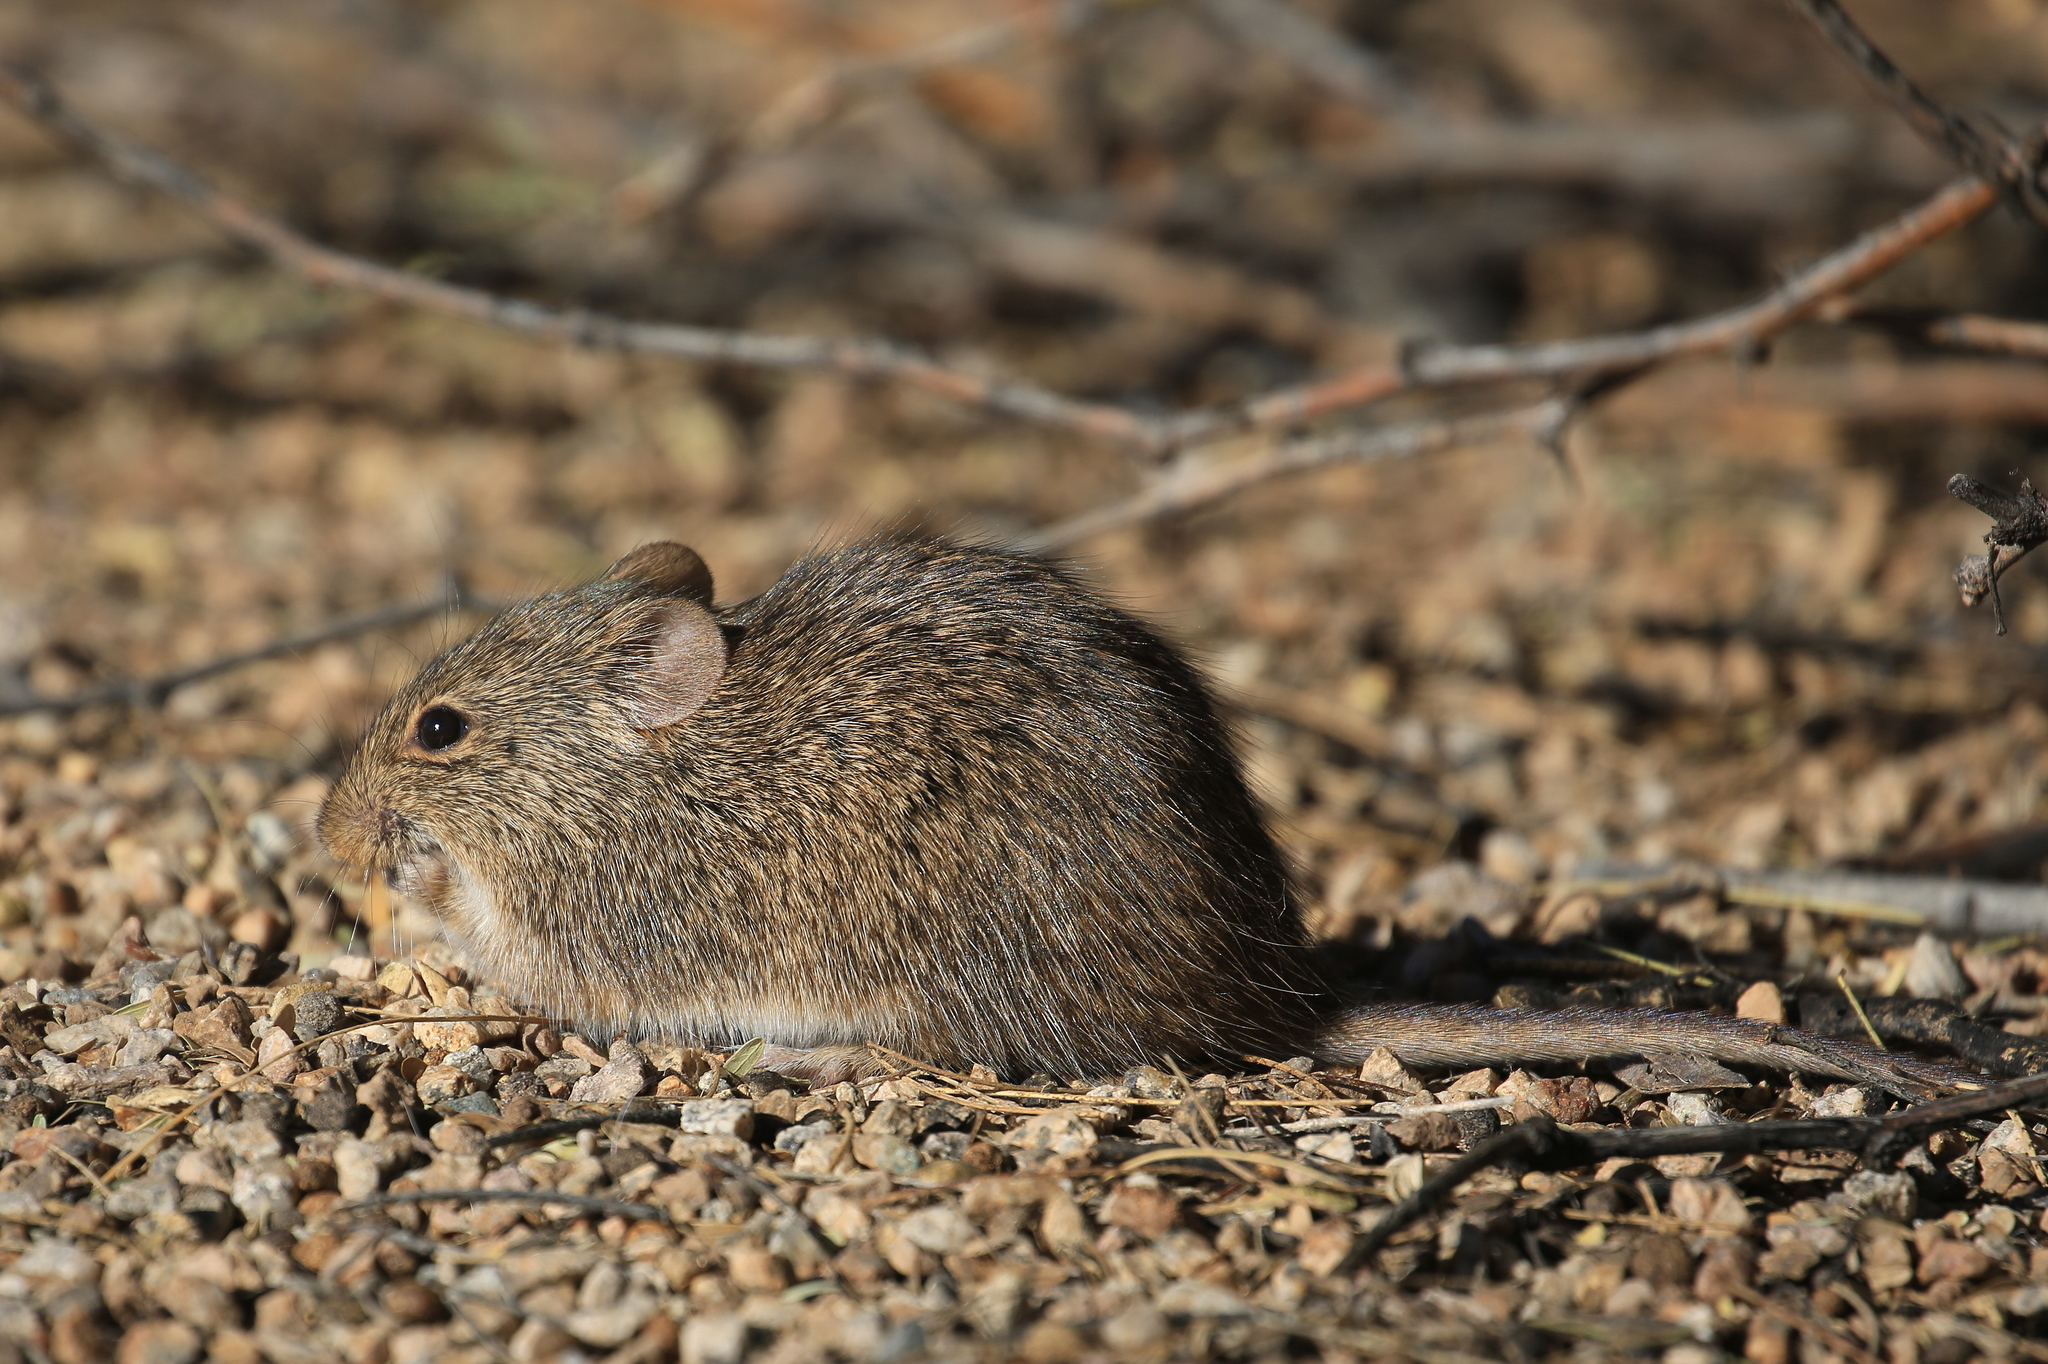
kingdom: Animalia
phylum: Chordata
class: Mammalia
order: Rodentia
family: Cricetidae
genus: Sigmodon
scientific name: Sigmodon arizonae
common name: Arizona cotton rat
